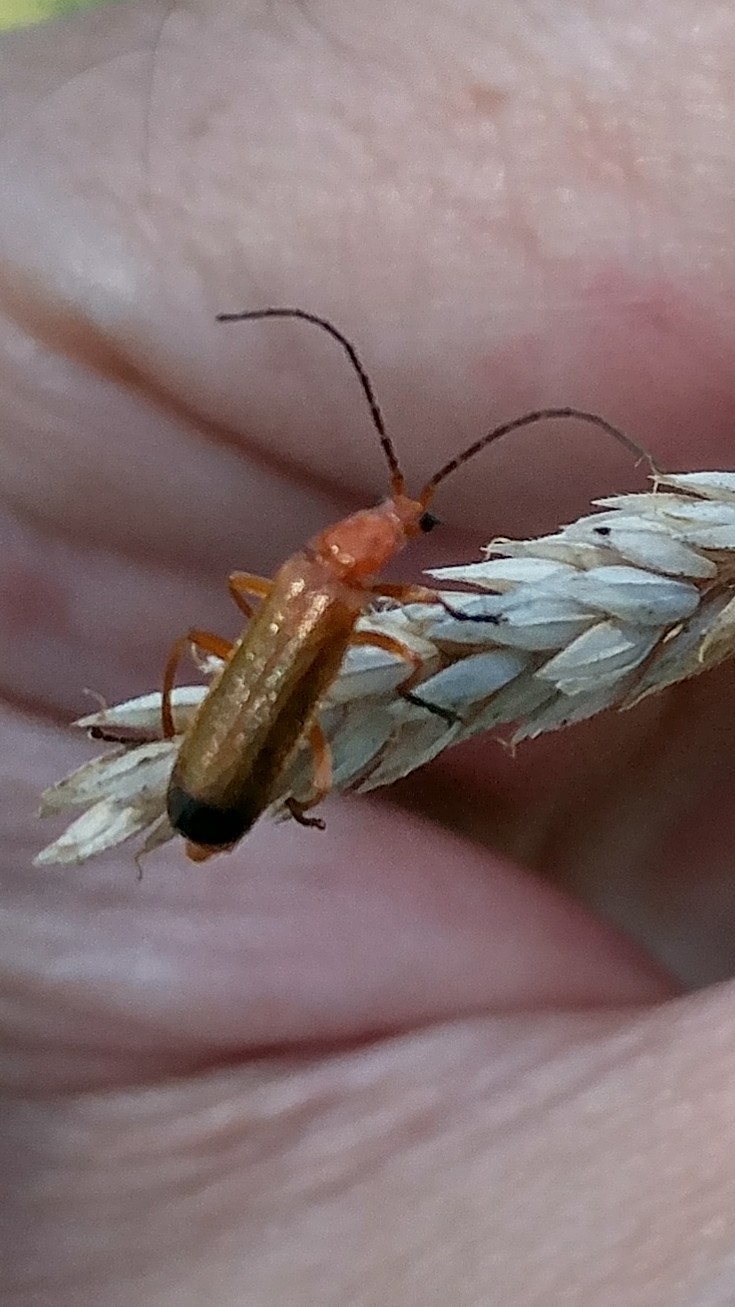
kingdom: Animalia
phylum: Arthropoda
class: Insecta
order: Coleoptera
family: Cantharidae
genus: Rhagonycha
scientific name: Rhagonycha fulva
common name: Common red soldier beetle
